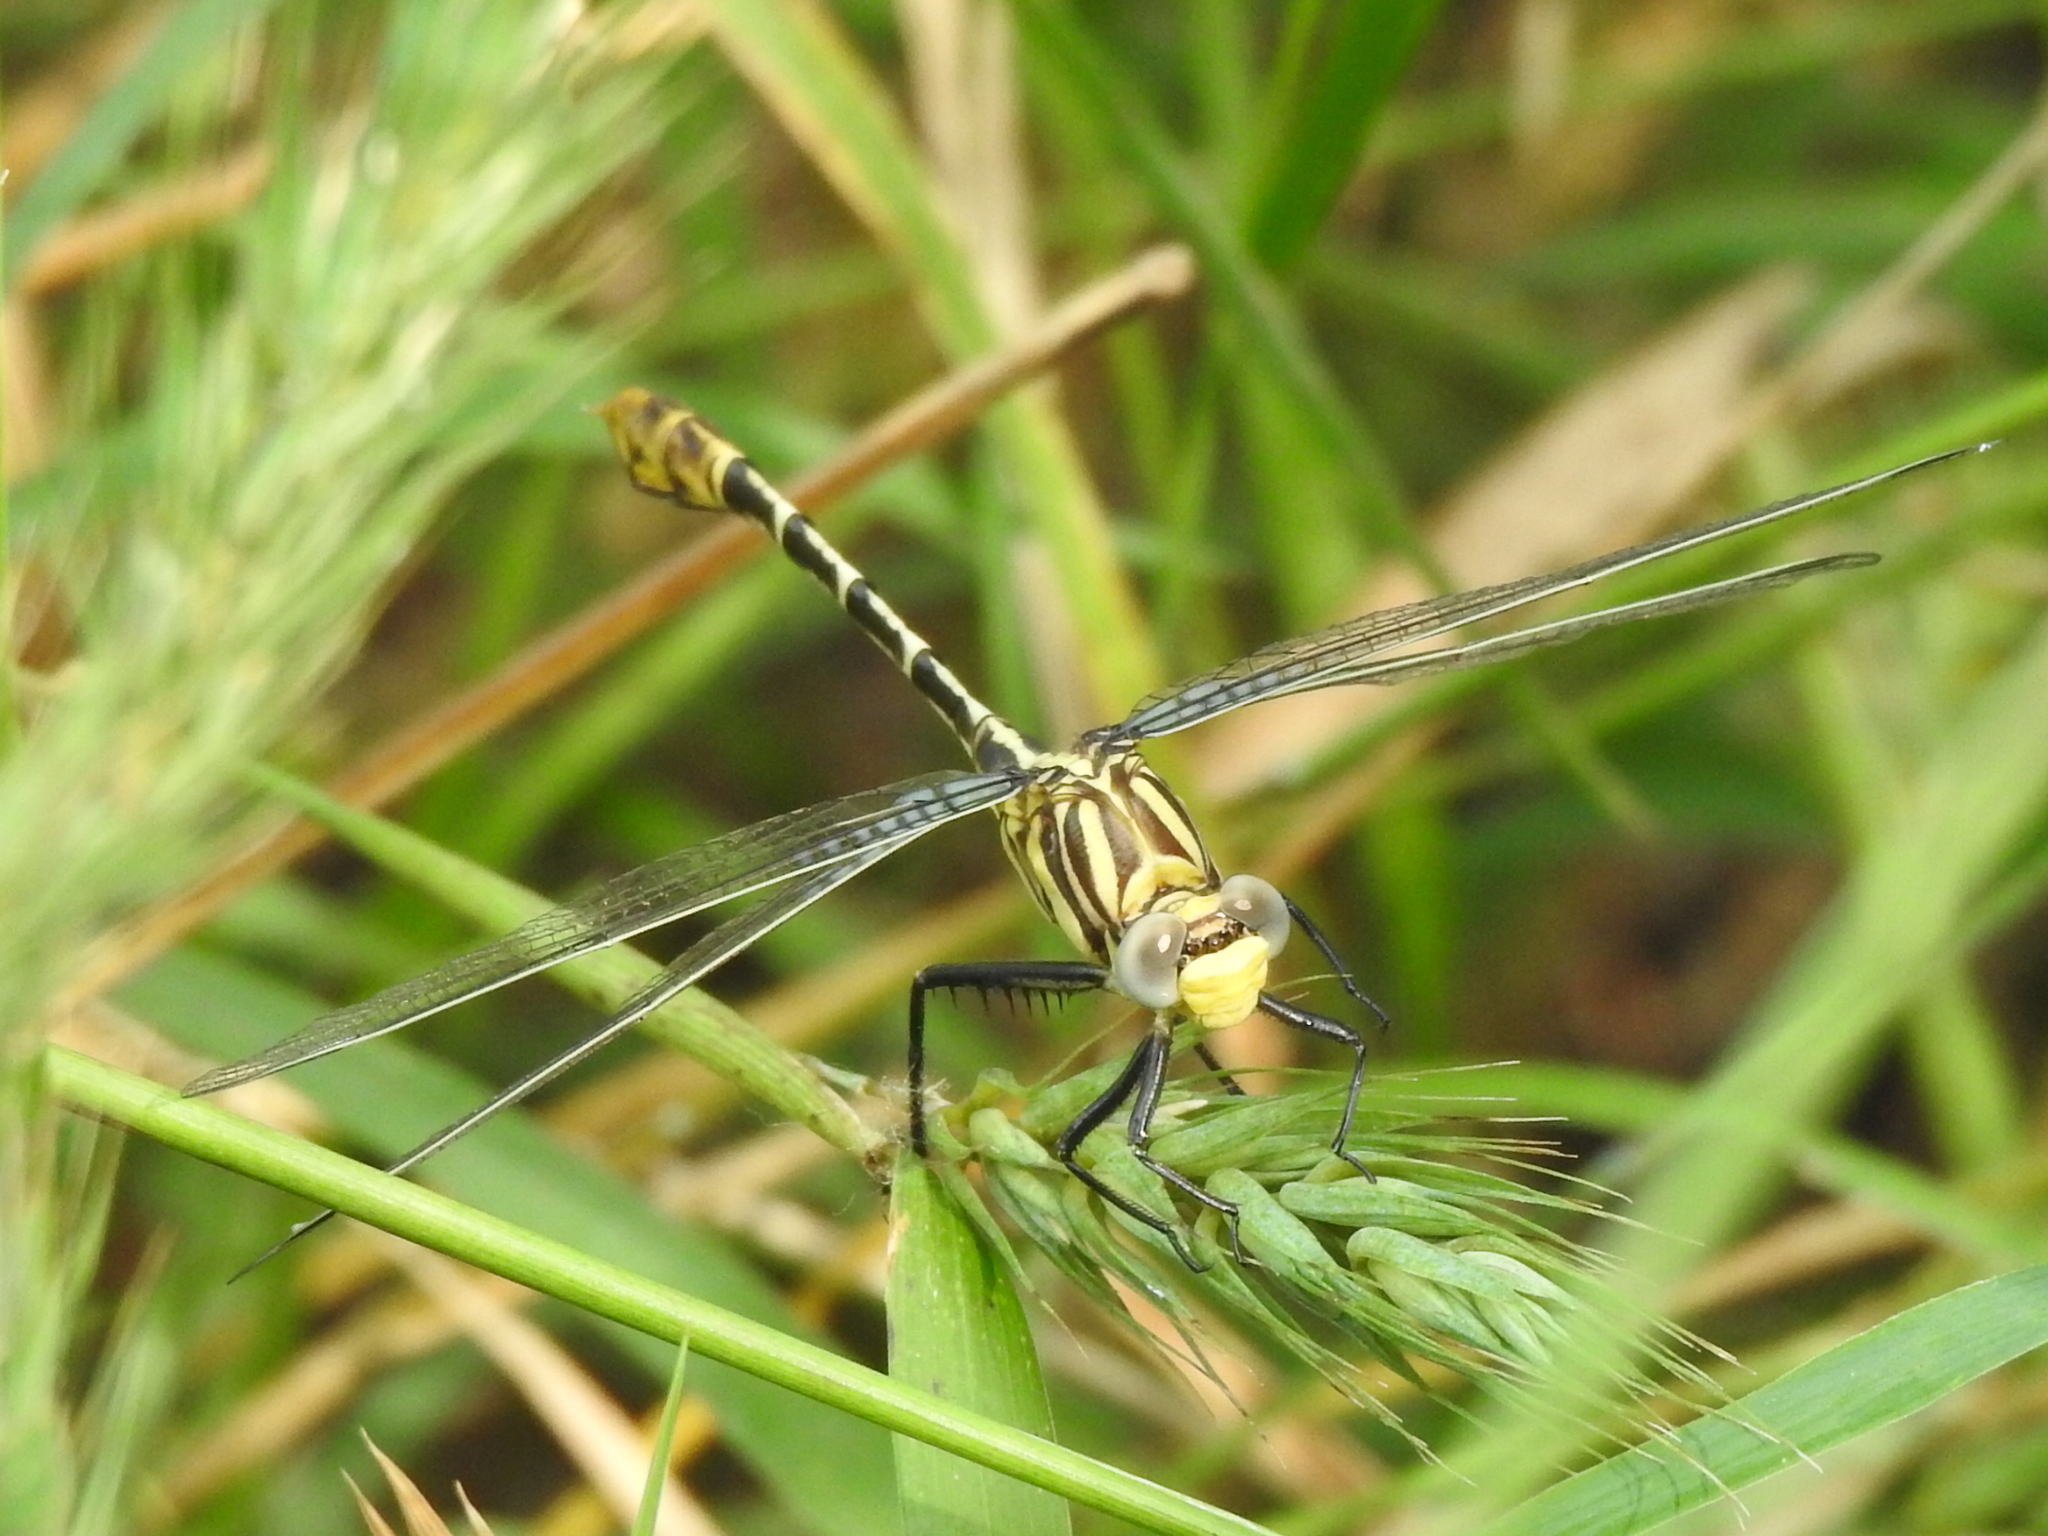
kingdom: Animalia
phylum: Arthropoda
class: Insecta
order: Odonata
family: Gomphidae
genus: Dromogomphus
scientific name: Dromogomphus spoliatus
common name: Flag-tailed spinyleg
